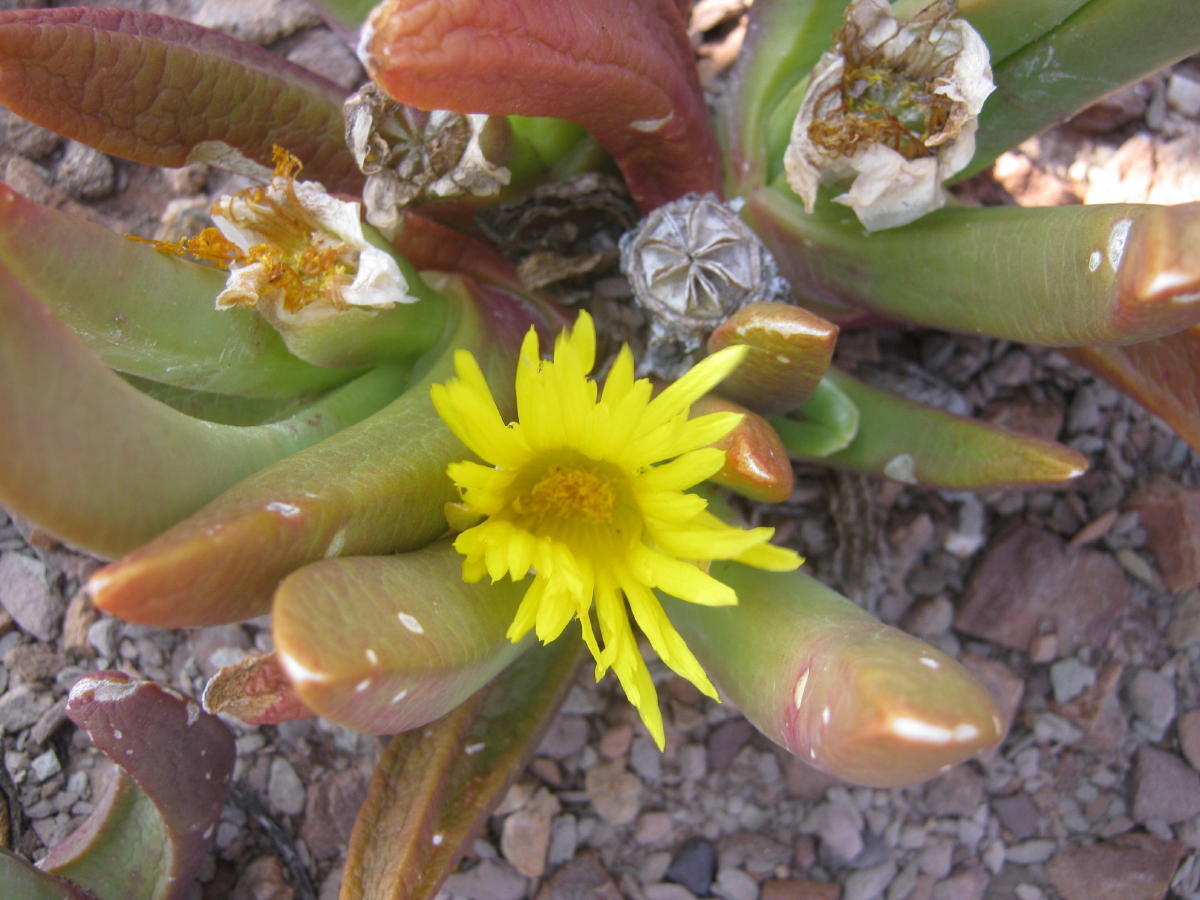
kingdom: Plantae
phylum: Tracheophyta
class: Magnoliopsida
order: Caryophyllales
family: Aizoaceae
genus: Glottiphyllum
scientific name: Glottiphyllum regium
